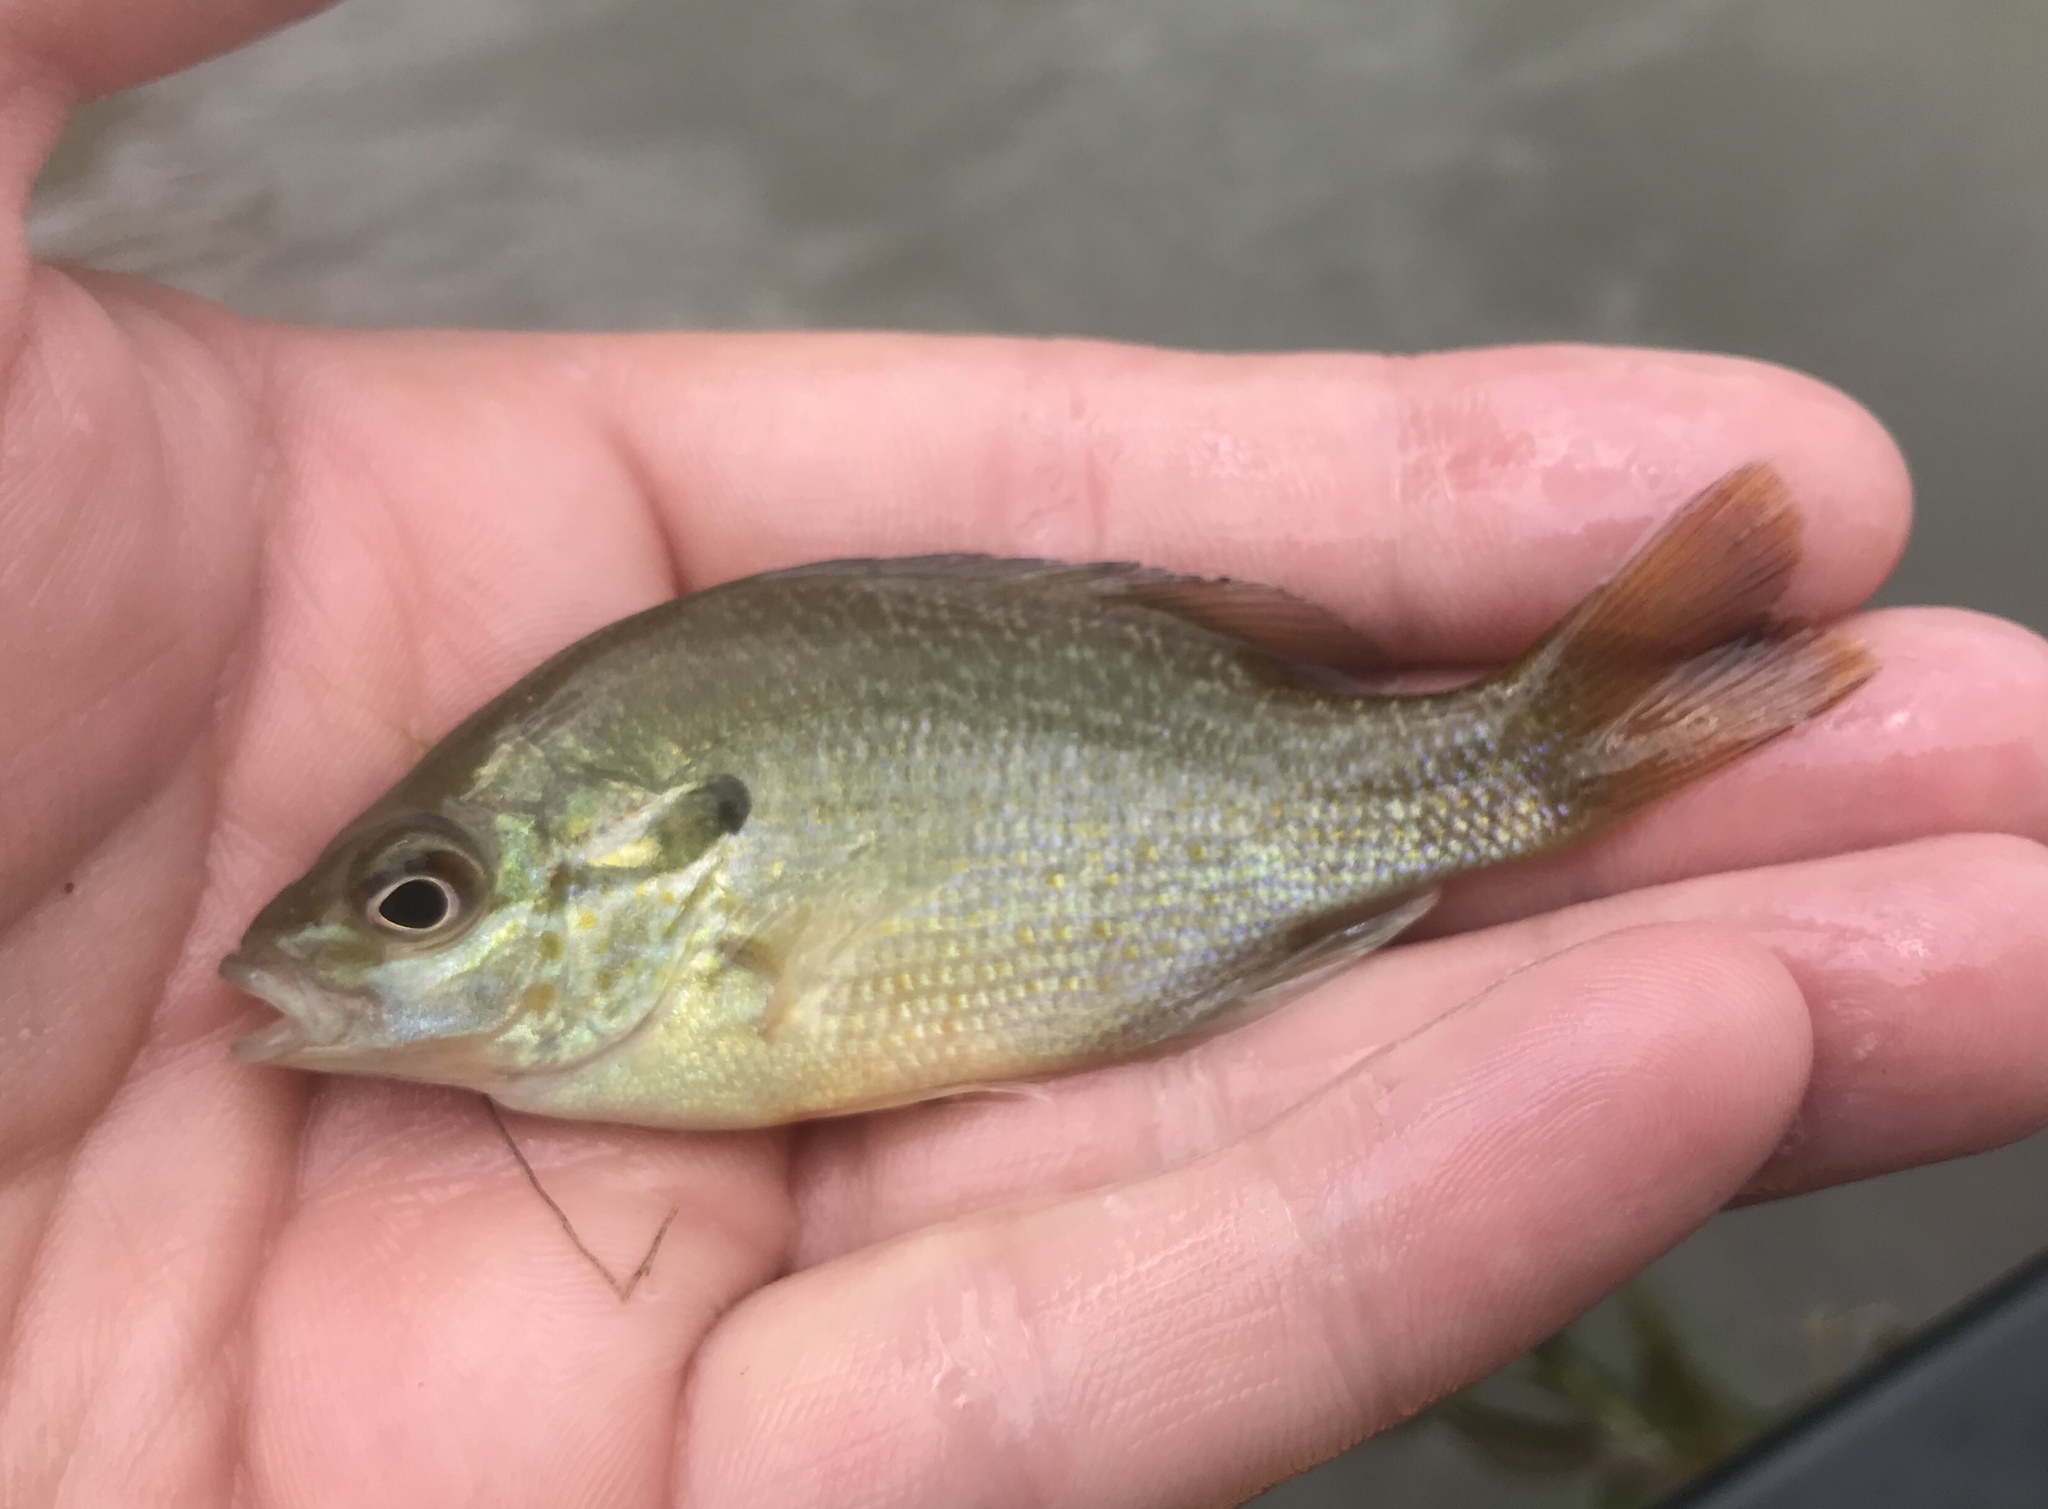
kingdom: Animalia
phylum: Chordata
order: Perciformes
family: Centrarchidae
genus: Lepomis
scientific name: Lepomis auritus
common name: Redbreast sunfish
